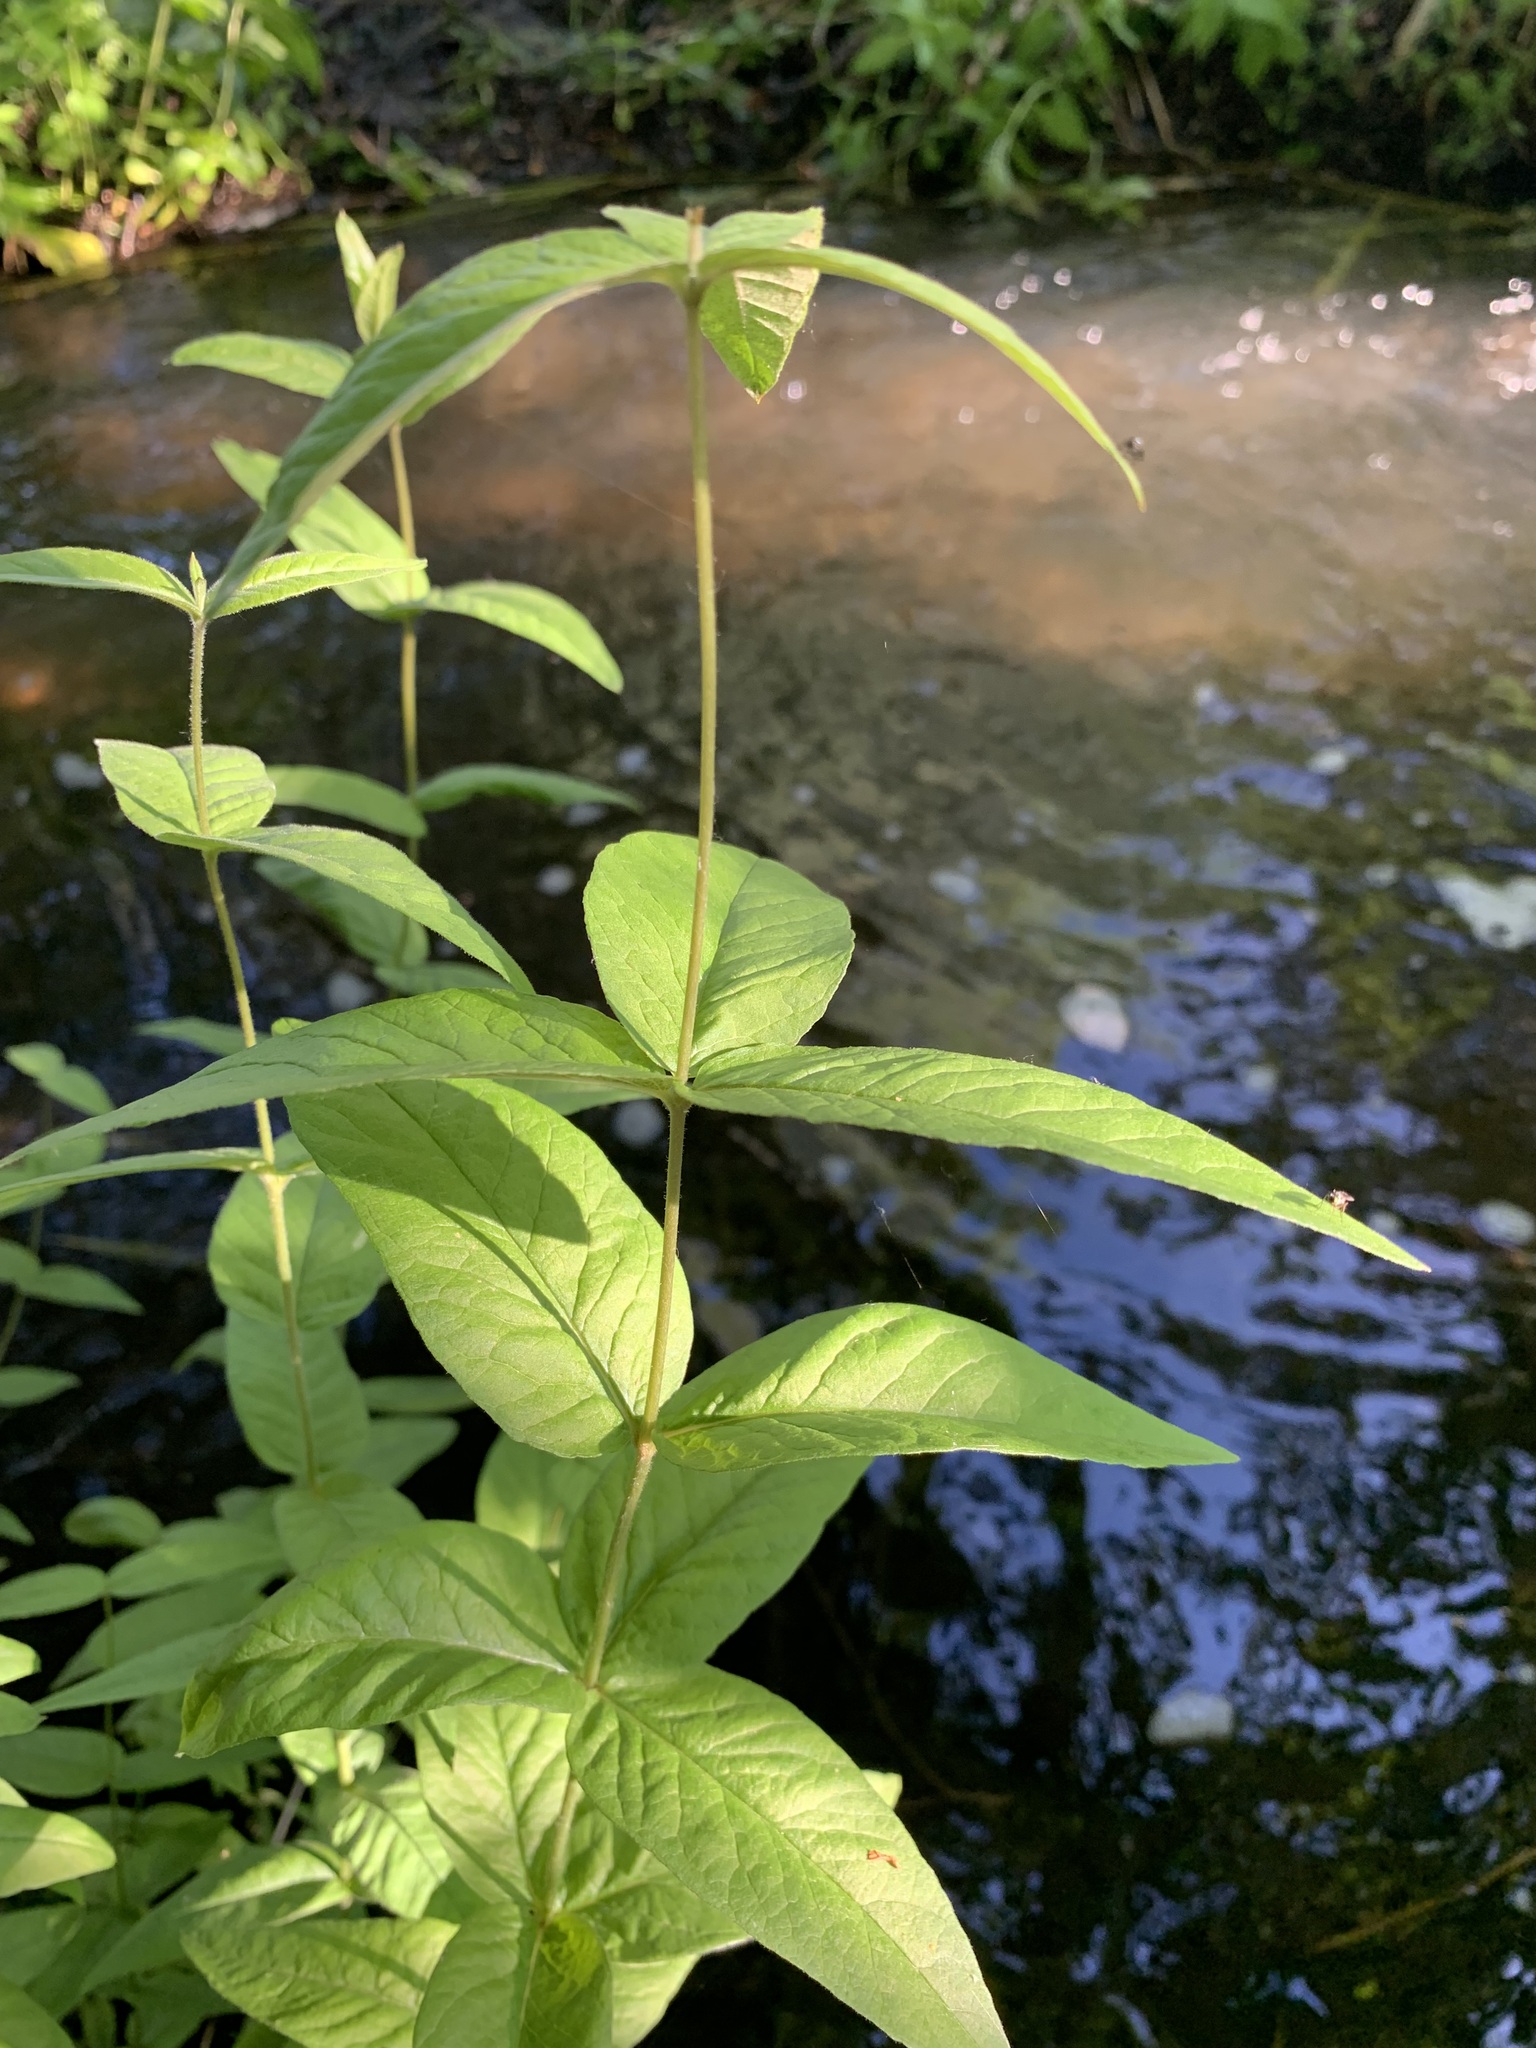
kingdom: Plantae
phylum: Tracheophyta
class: Magnoliopsida
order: Ericales
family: Primulaceae
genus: Lysimachia
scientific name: Lysimachia vulgaris
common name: Yellow loosestrife
